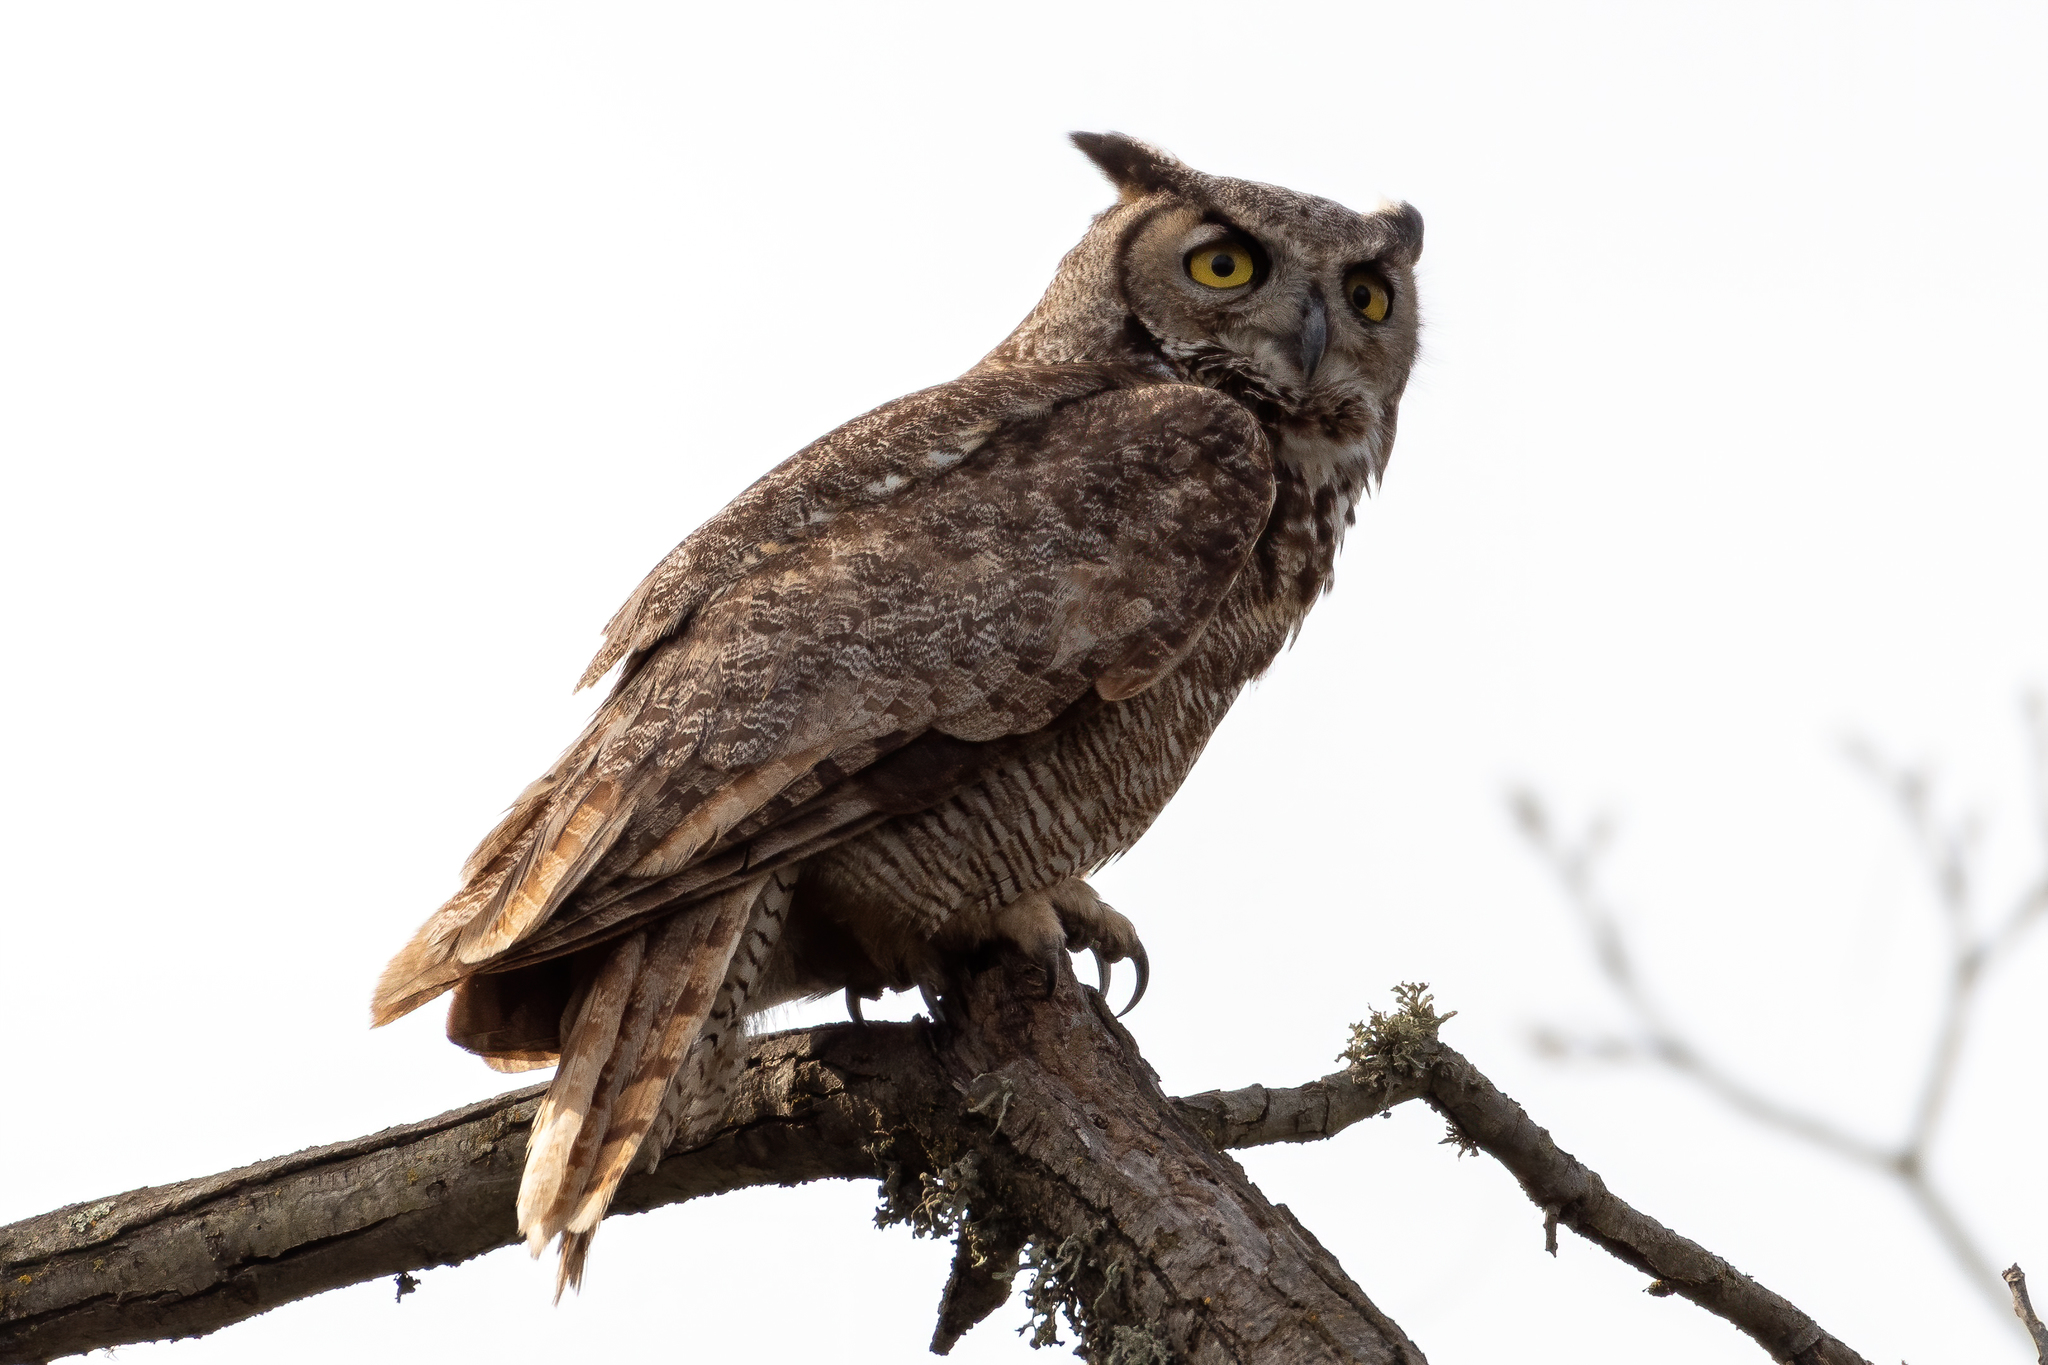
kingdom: Animalia
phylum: Chordata
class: Aves
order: Strigiformes
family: Strigidae
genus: Bubo
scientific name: Bubo virginianus
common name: Great horned owl
